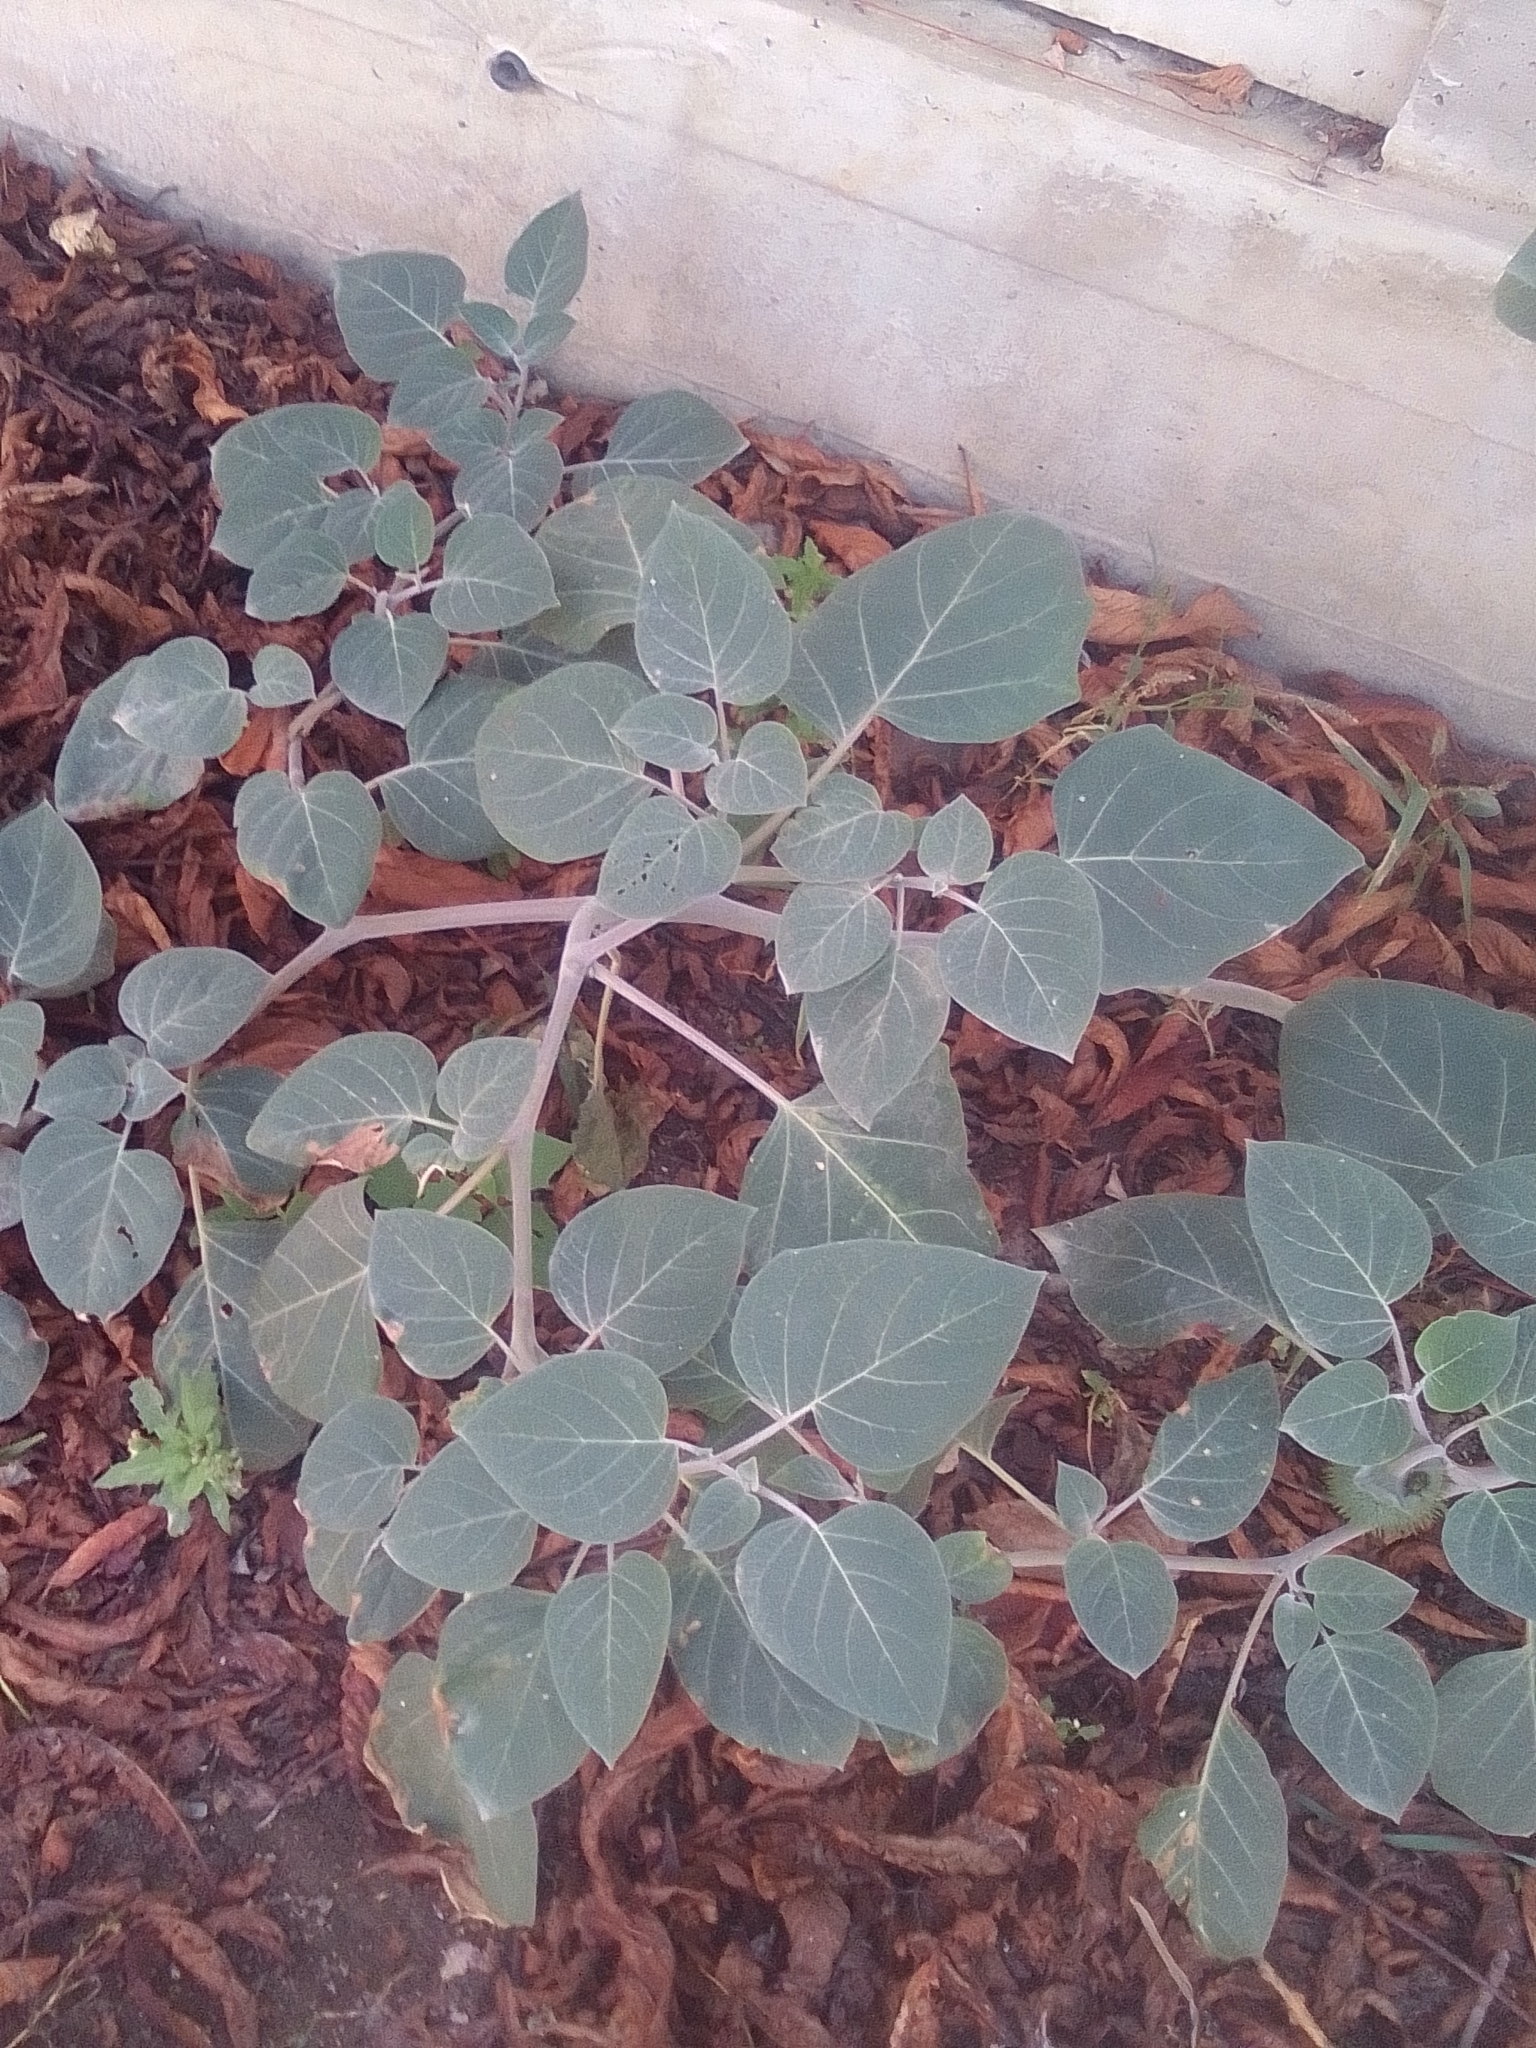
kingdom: Plantae
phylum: Tracheophyta
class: Magnoliopsida
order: Solanales
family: Solanaceae
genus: Datura
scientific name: Datura innoxia
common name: Downy thorn-apple
